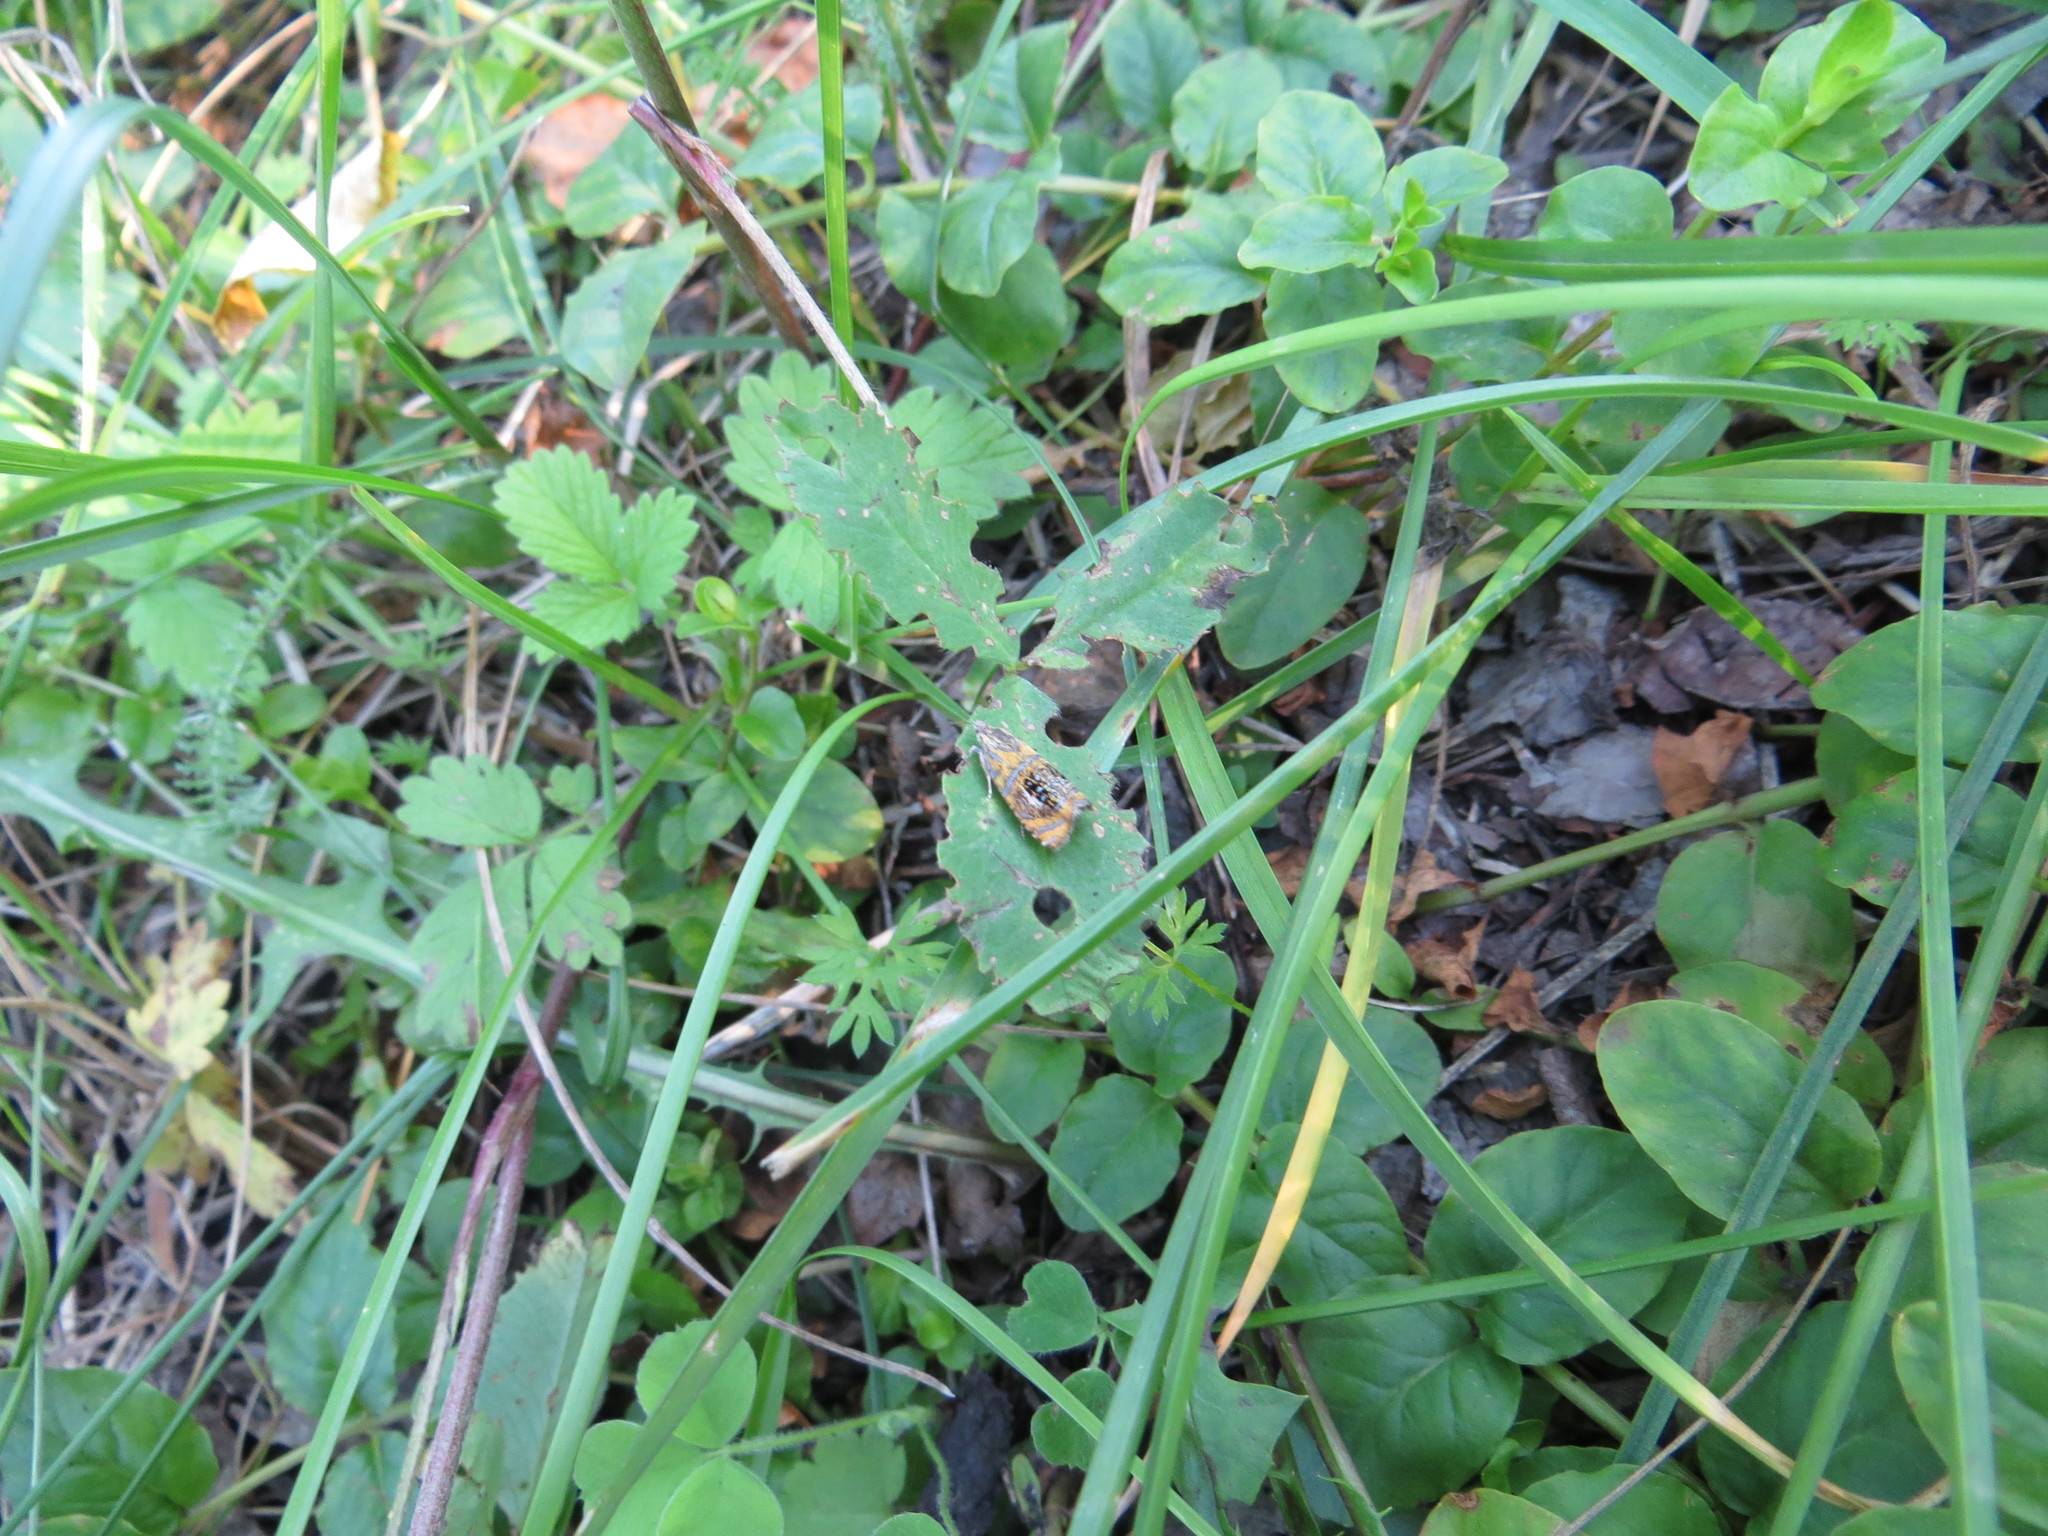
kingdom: Animalia
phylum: Arthropoda
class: Insecta
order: Lepidoptera
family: Tortricidae
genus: Olethreutes
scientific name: Olethreutes arcuella
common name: Arched marble
